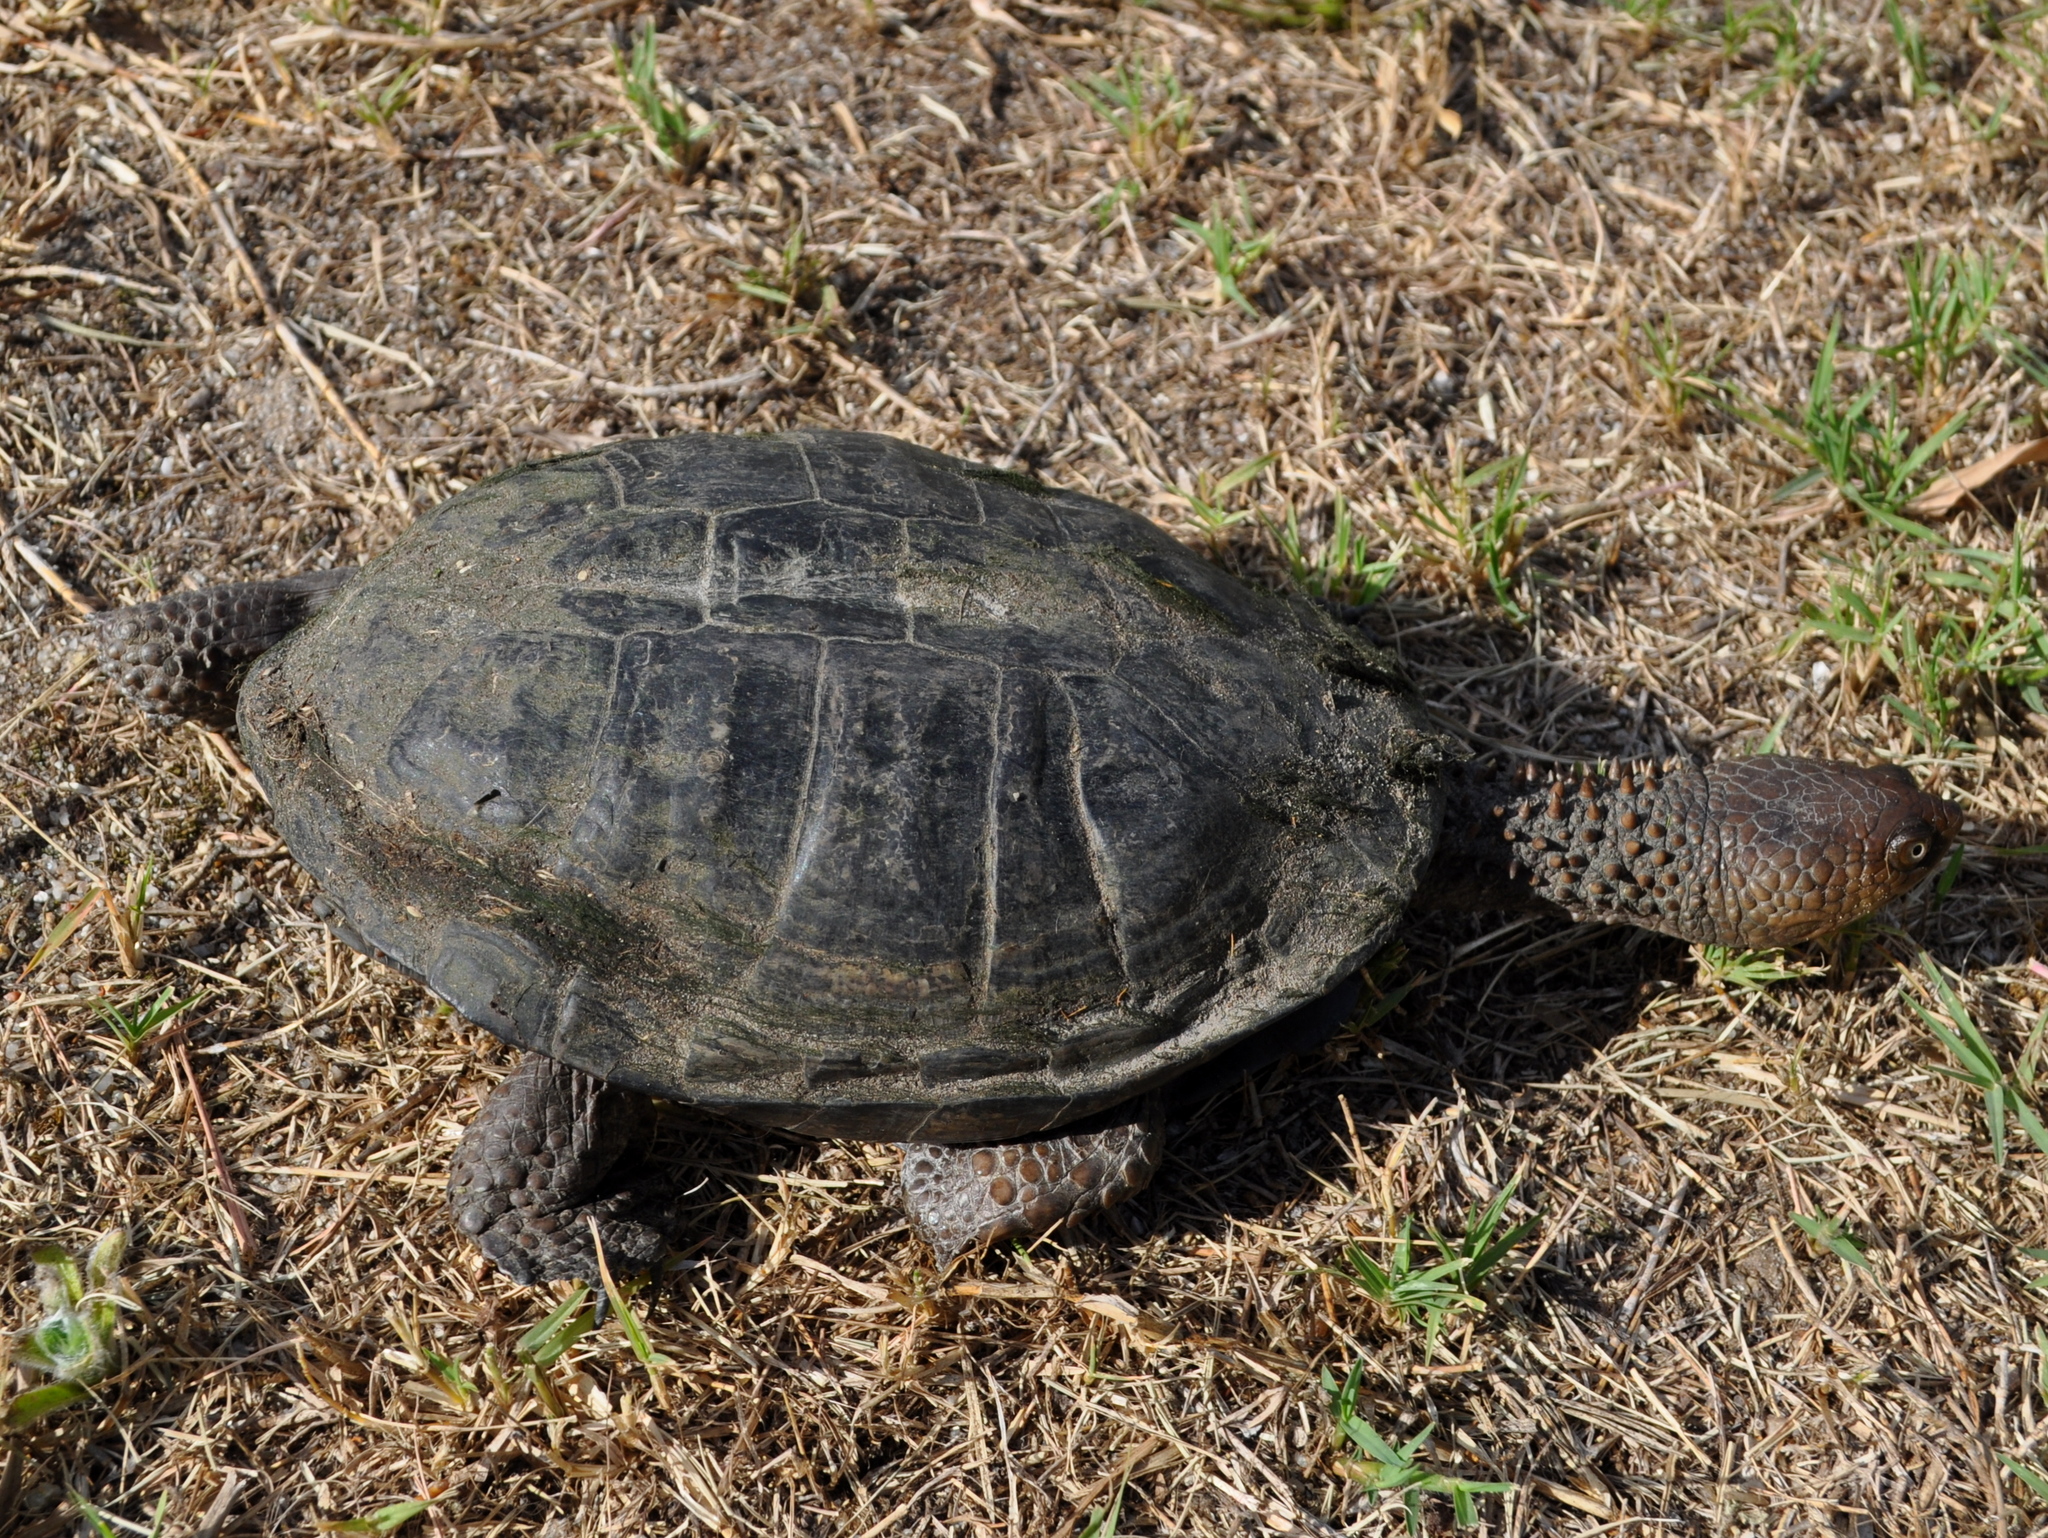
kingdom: Animalia
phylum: Chordata
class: Testudines
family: Chelidae
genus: Acanthochelys
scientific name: Acanthochelys spixii
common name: Black spine-neck swamp turtle
